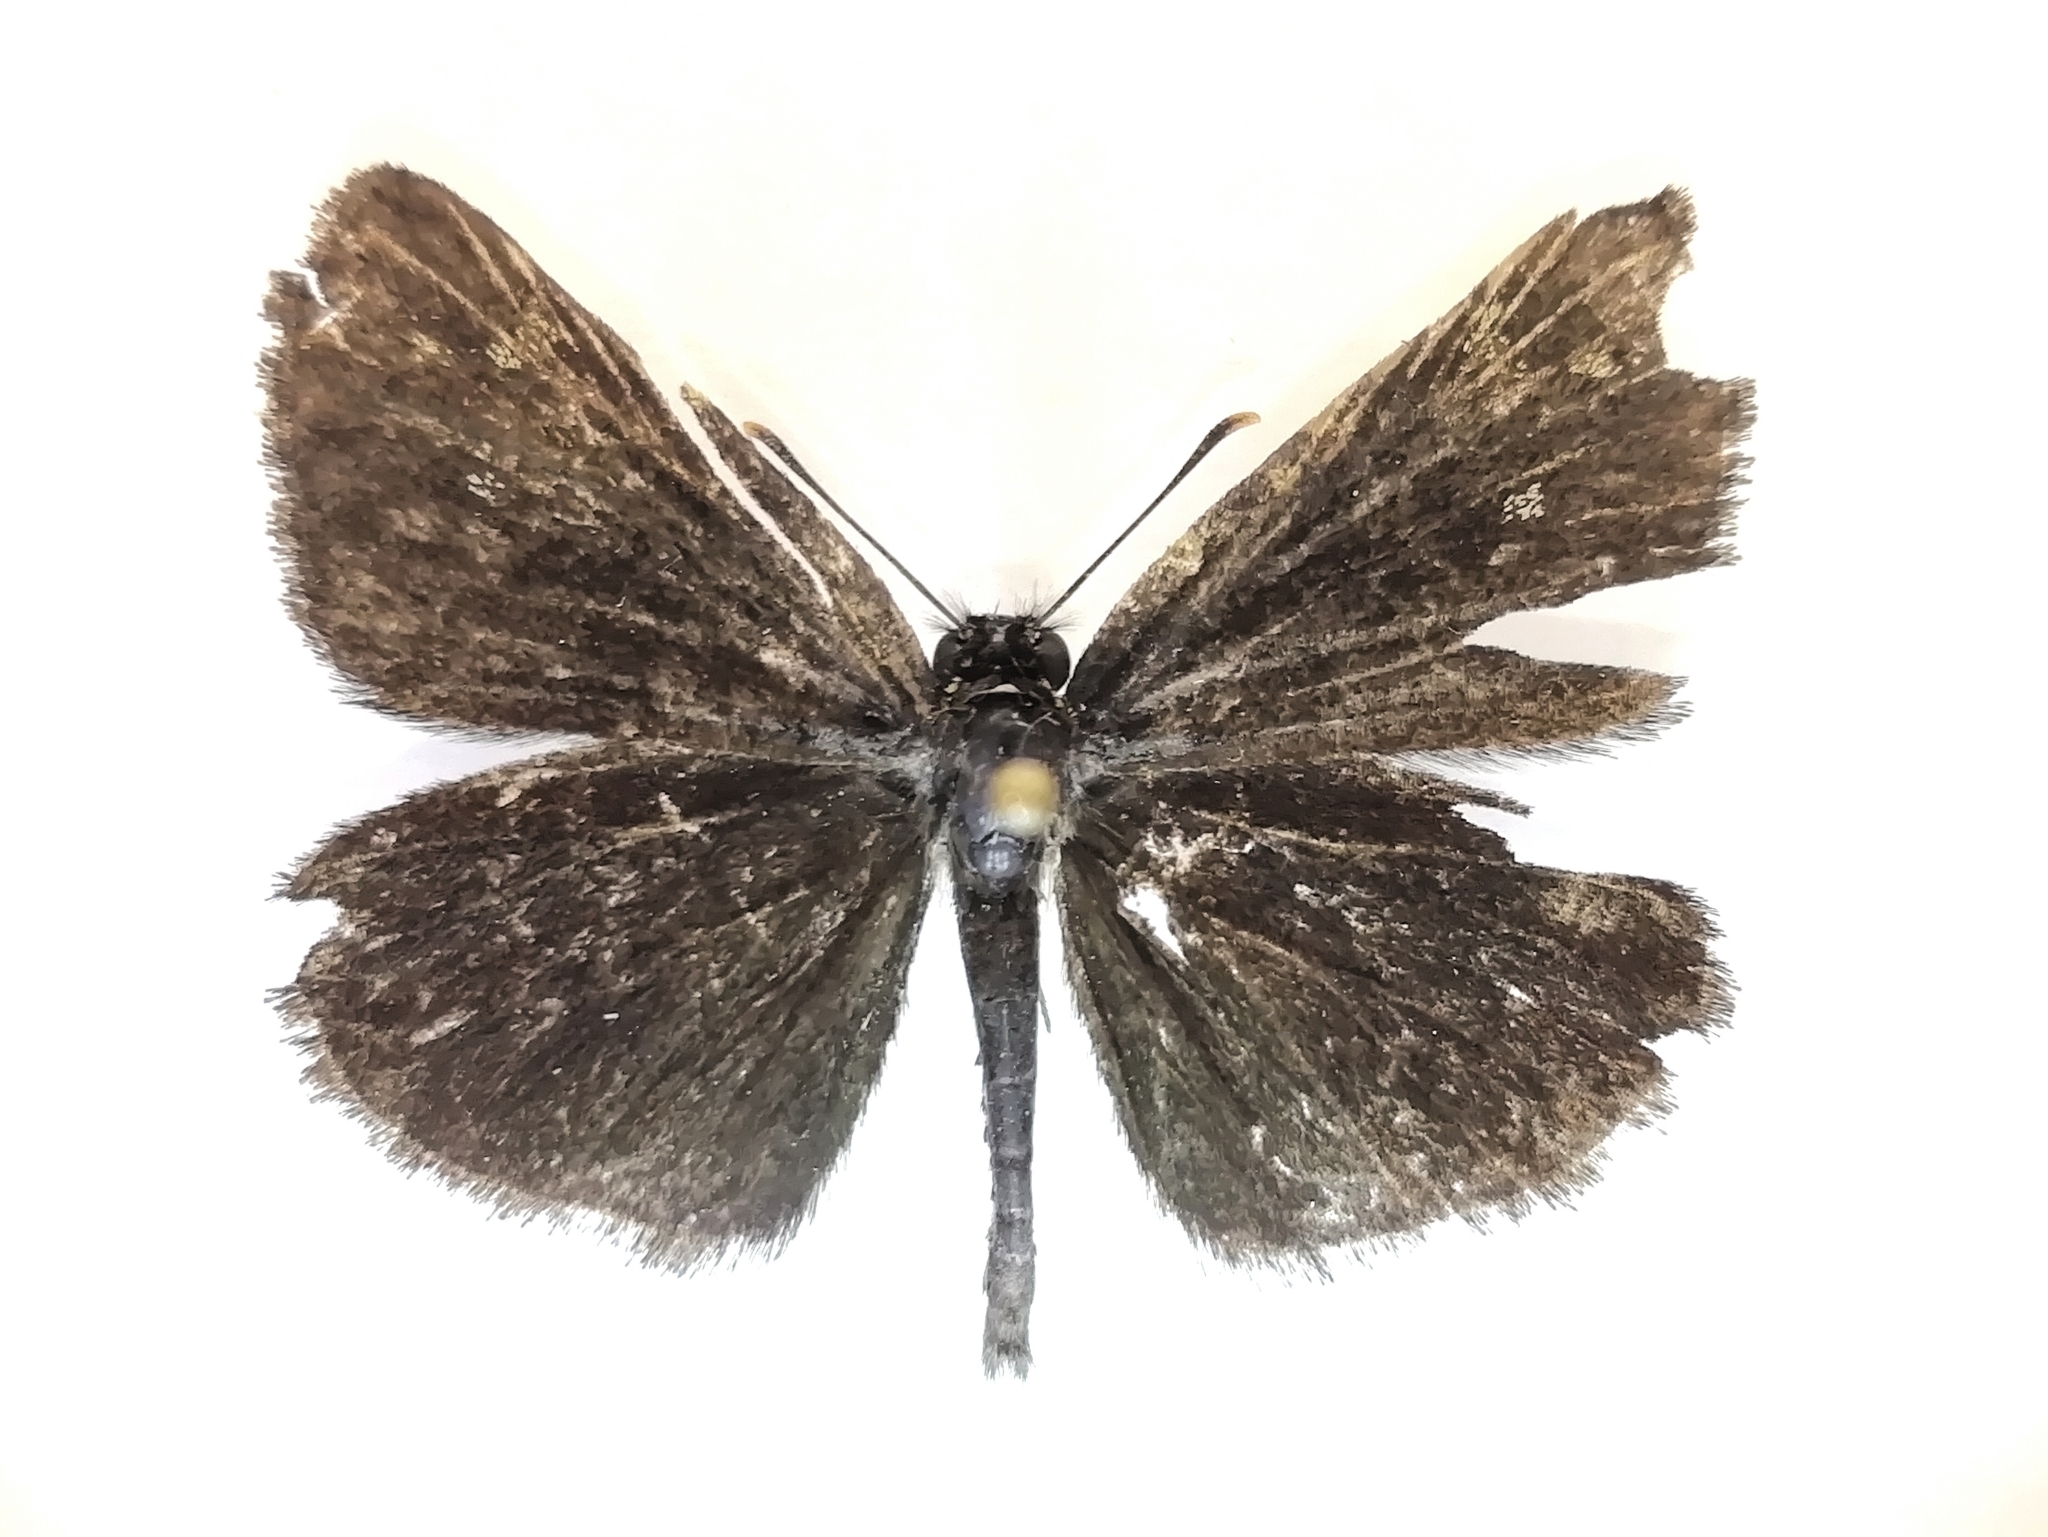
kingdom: Animalia
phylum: Arthropoda
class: Insecta
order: Lepidoptera
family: Hesperiidae
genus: Heteropterus
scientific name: Heteropterus morpheus
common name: Large chequered skipper
